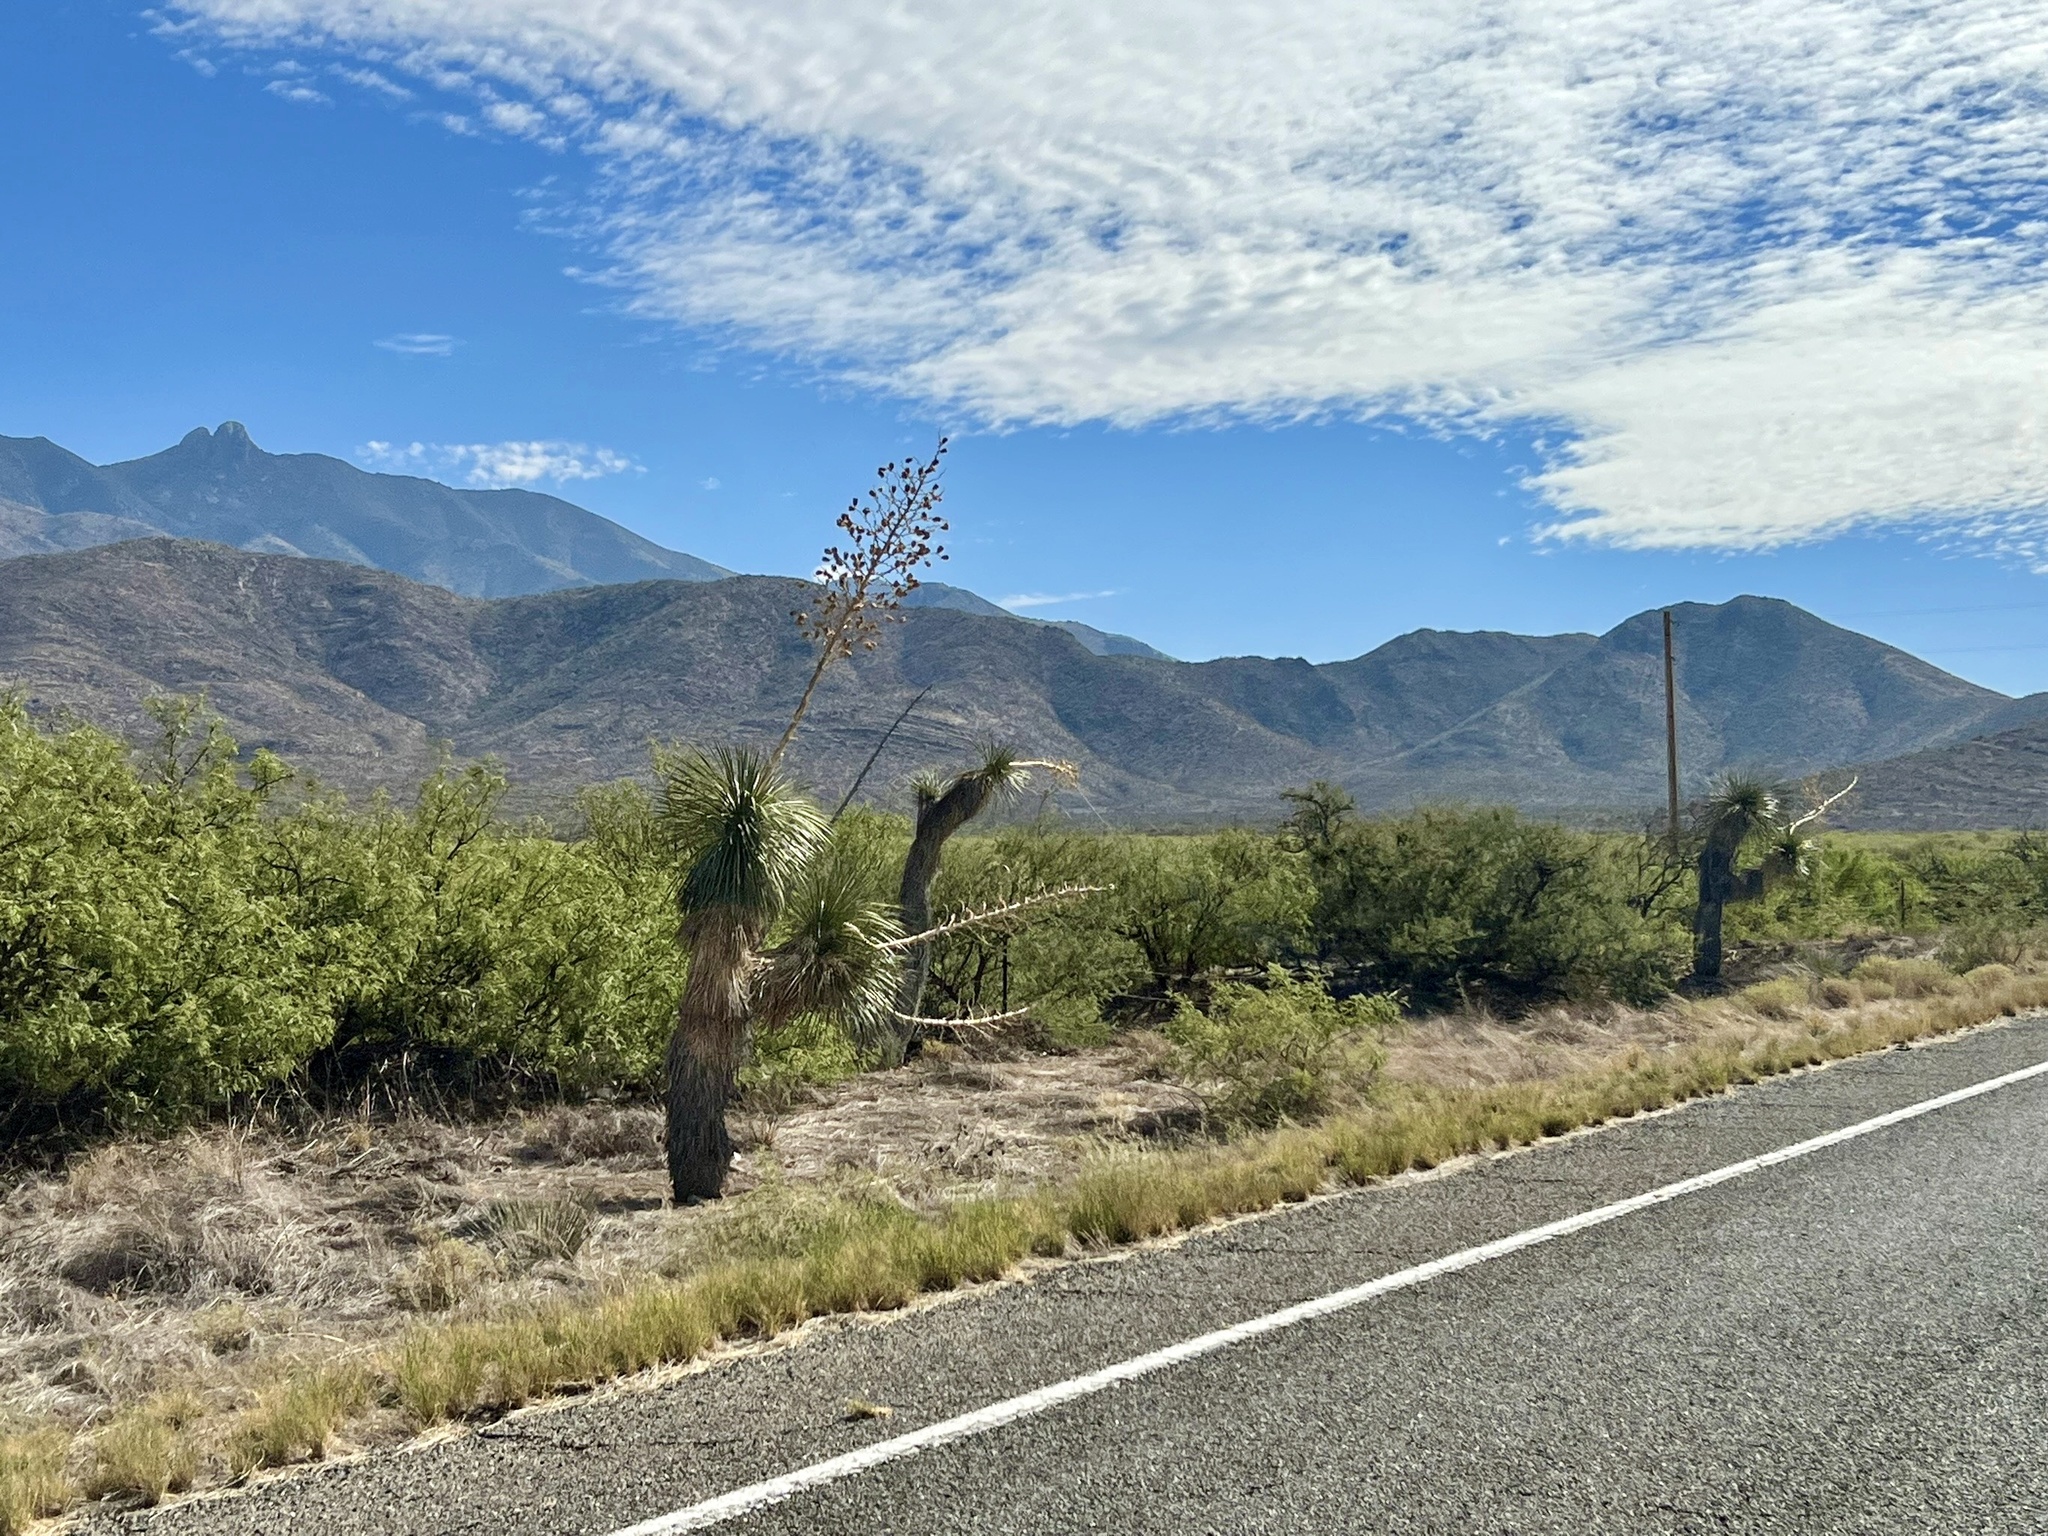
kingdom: Plantae
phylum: Tracheophyta
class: Liliopsida
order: Asparagales
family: Asparagaceae
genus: Yucca
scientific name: Yucca elata
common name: Palmella
